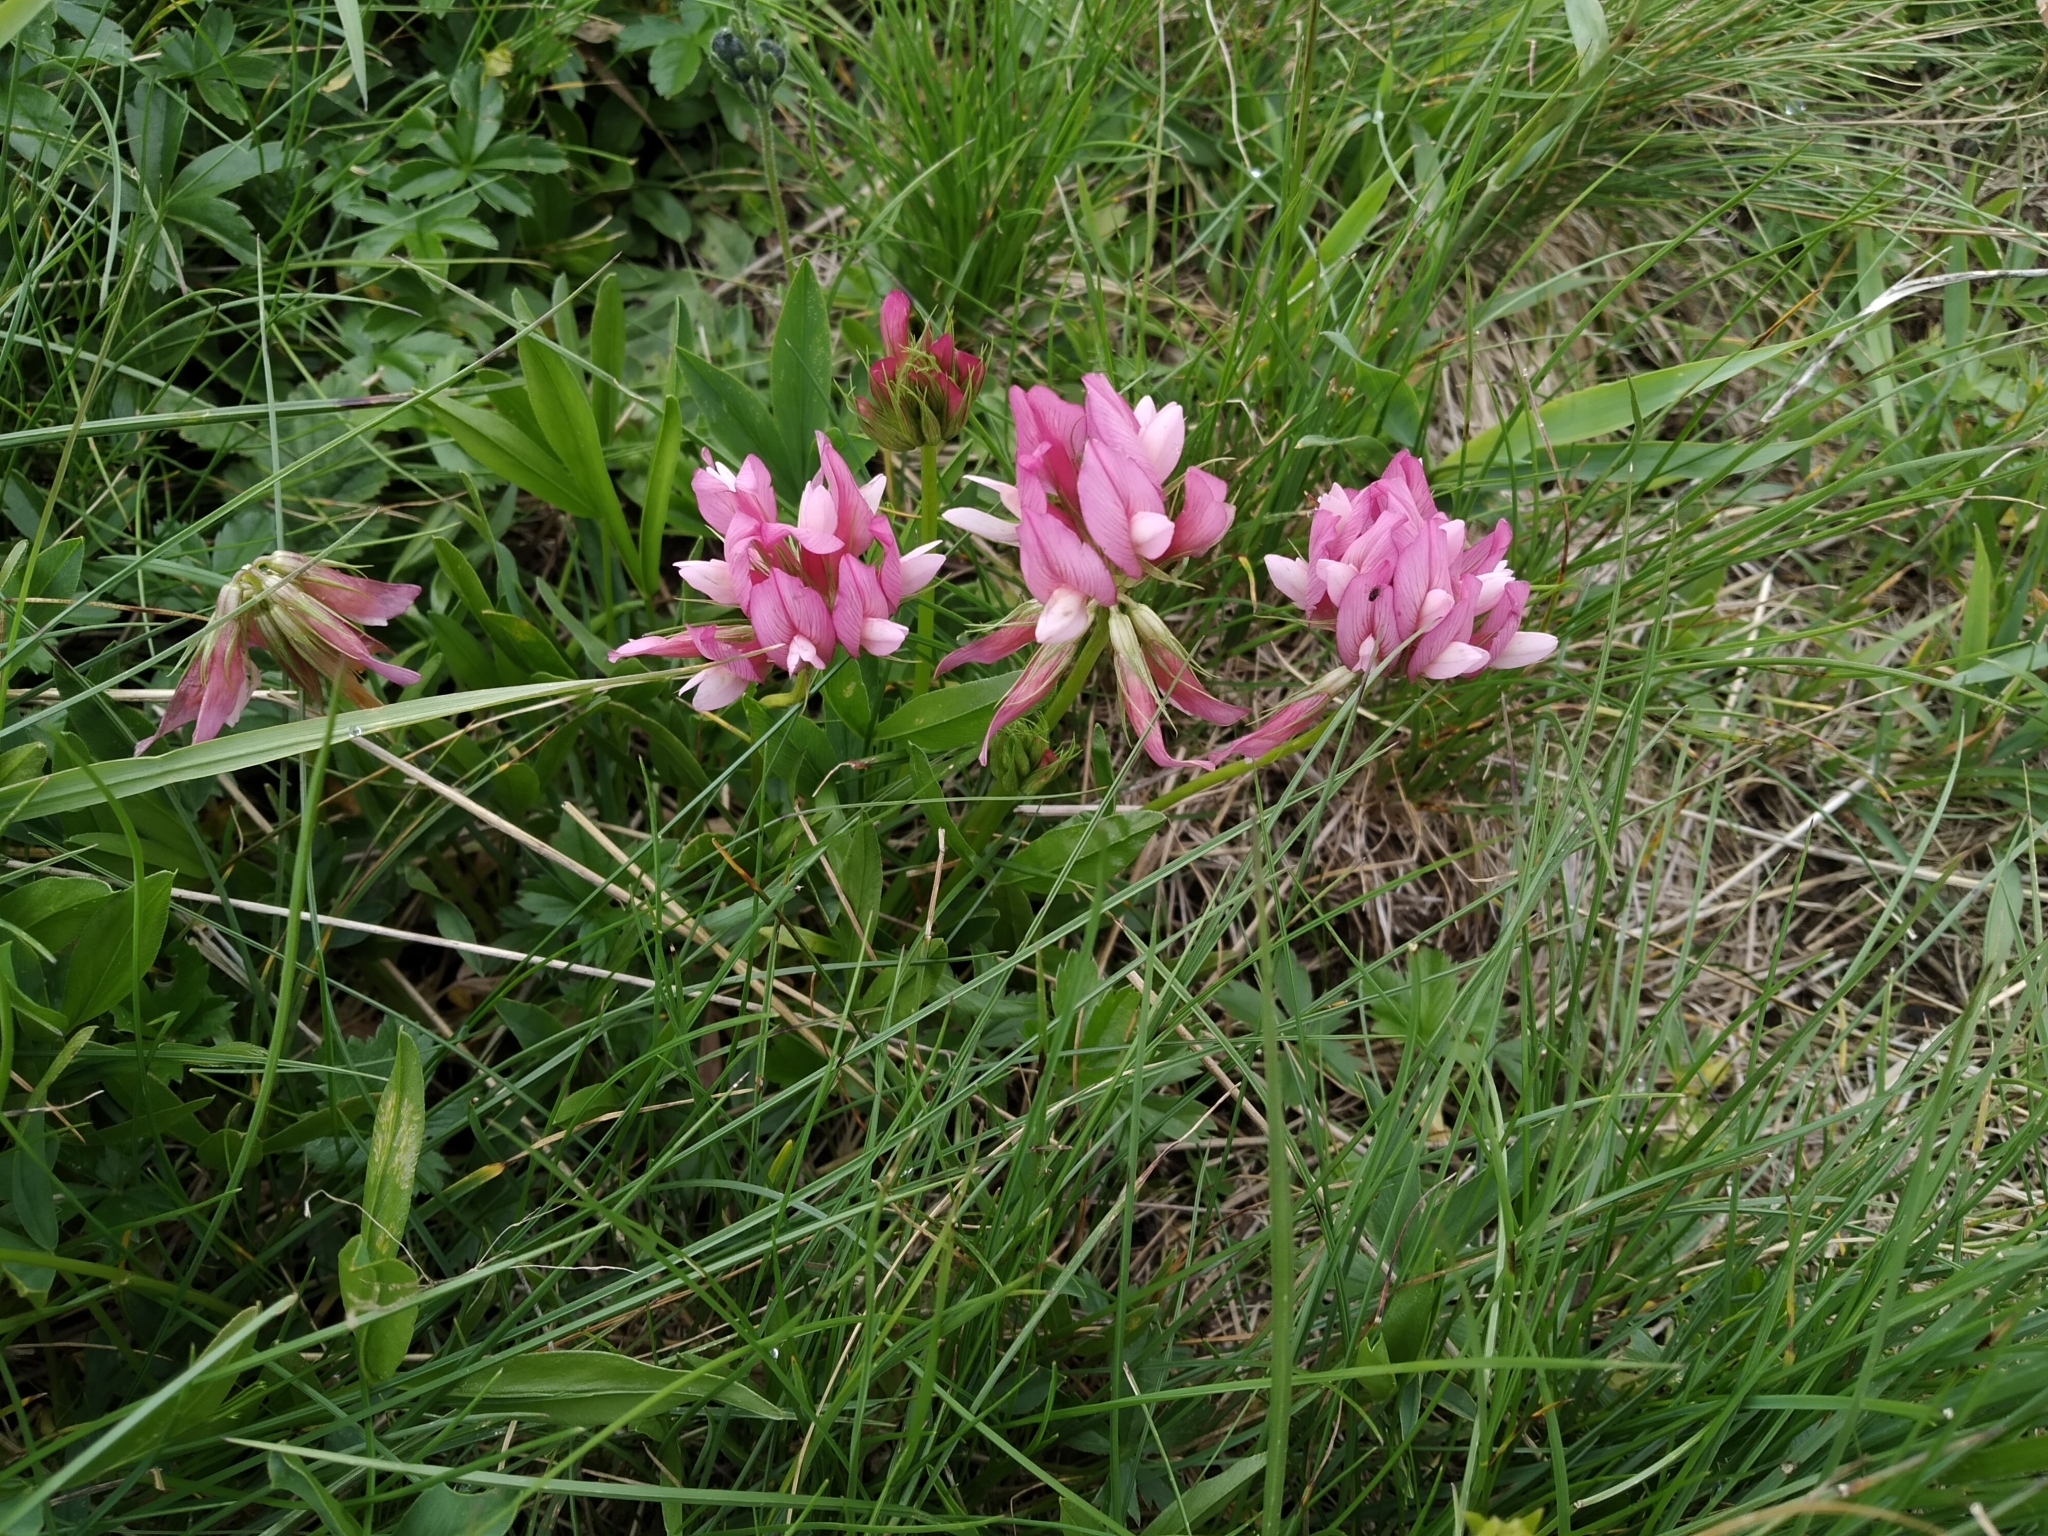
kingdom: Plantae
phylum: Tracheophyta
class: Magnoliopsida
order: Fabales
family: Fabaceae
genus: Trifolium
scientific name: Trifolium alpinum
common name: Alpine clover
